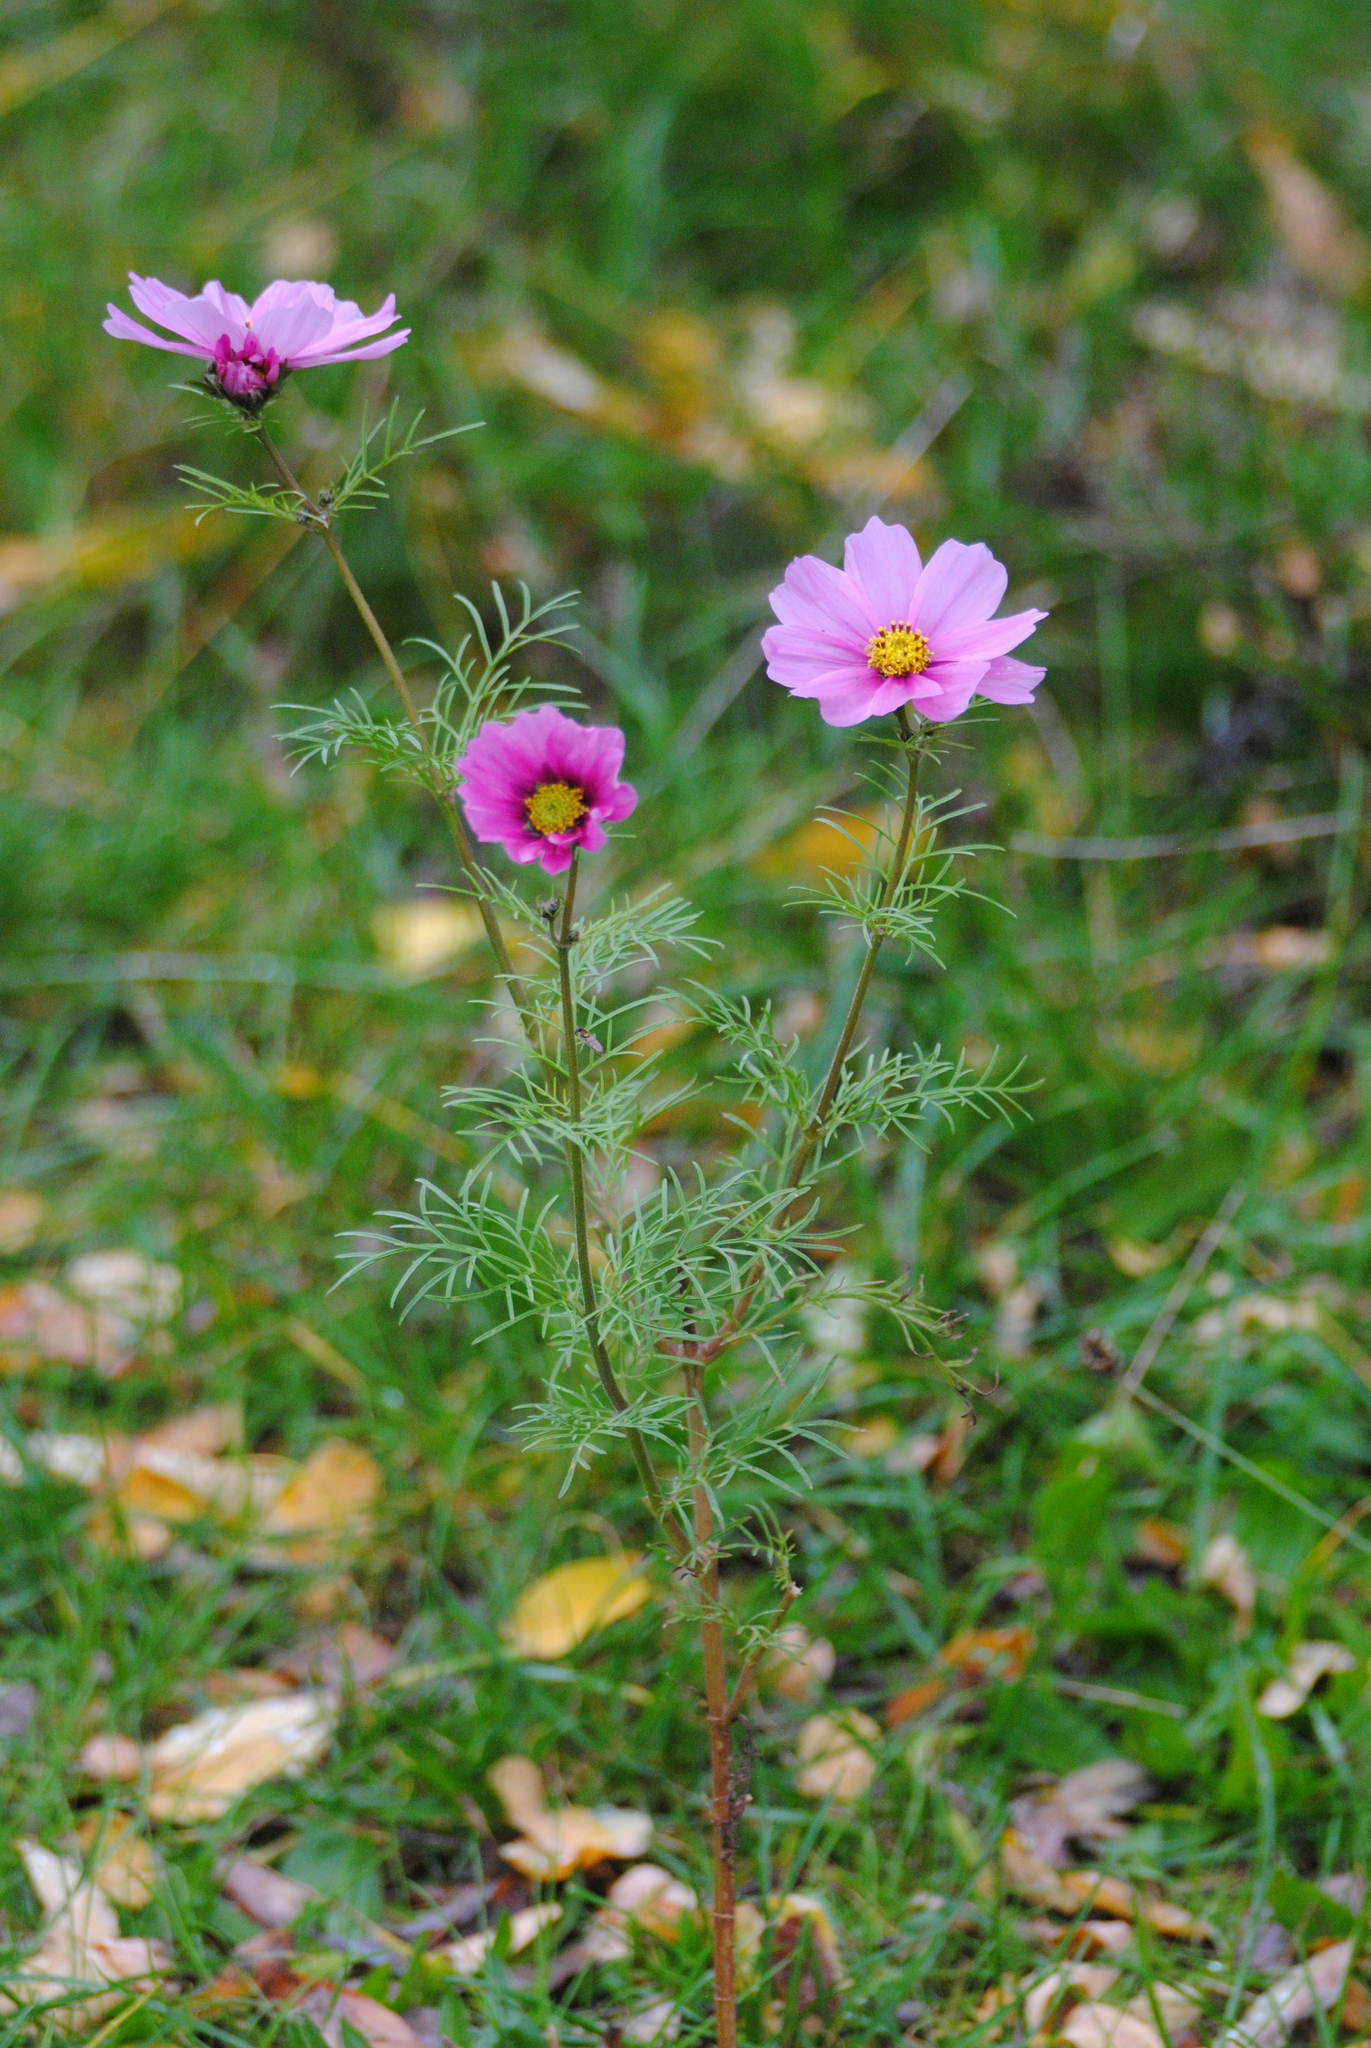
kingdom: Plantae
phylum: Tracheophyta
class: Magnoliopsida
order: Asterales
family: Asteraceae
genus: Cosmos
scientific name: Cosmos bipinnatus
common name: Garden cosmos
